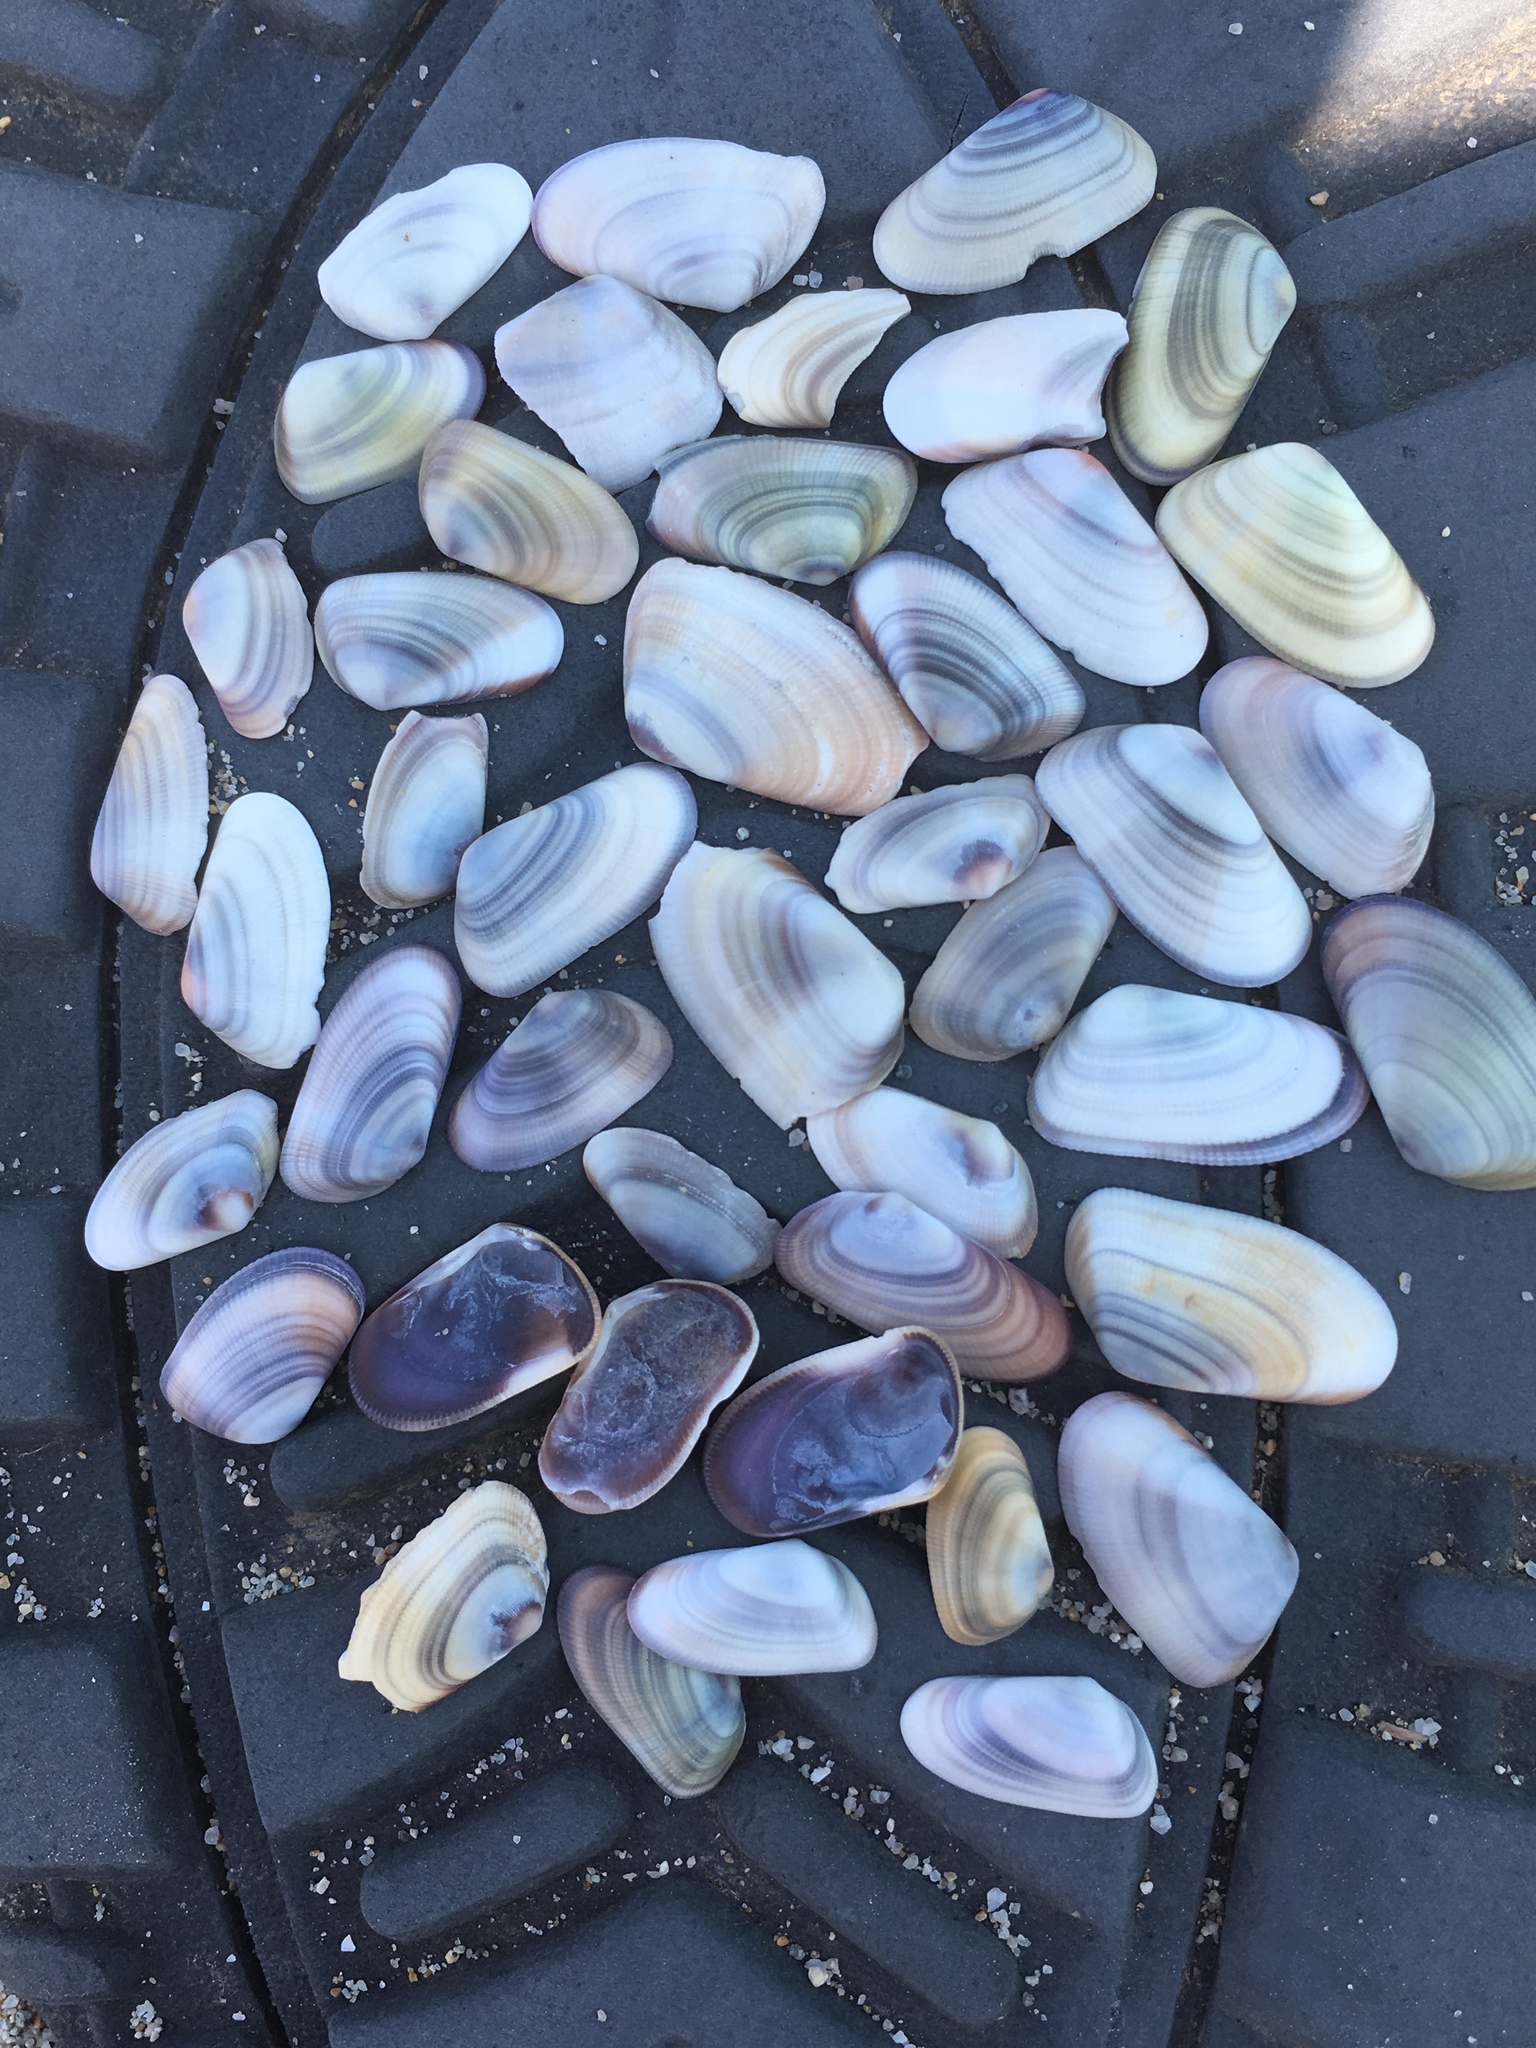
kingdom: Animalia
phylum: Mollusca
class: Bivalvia
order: Cardiida
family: Donacidae
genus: Donax
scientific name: Donax gouldii
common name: Gould beanclam
